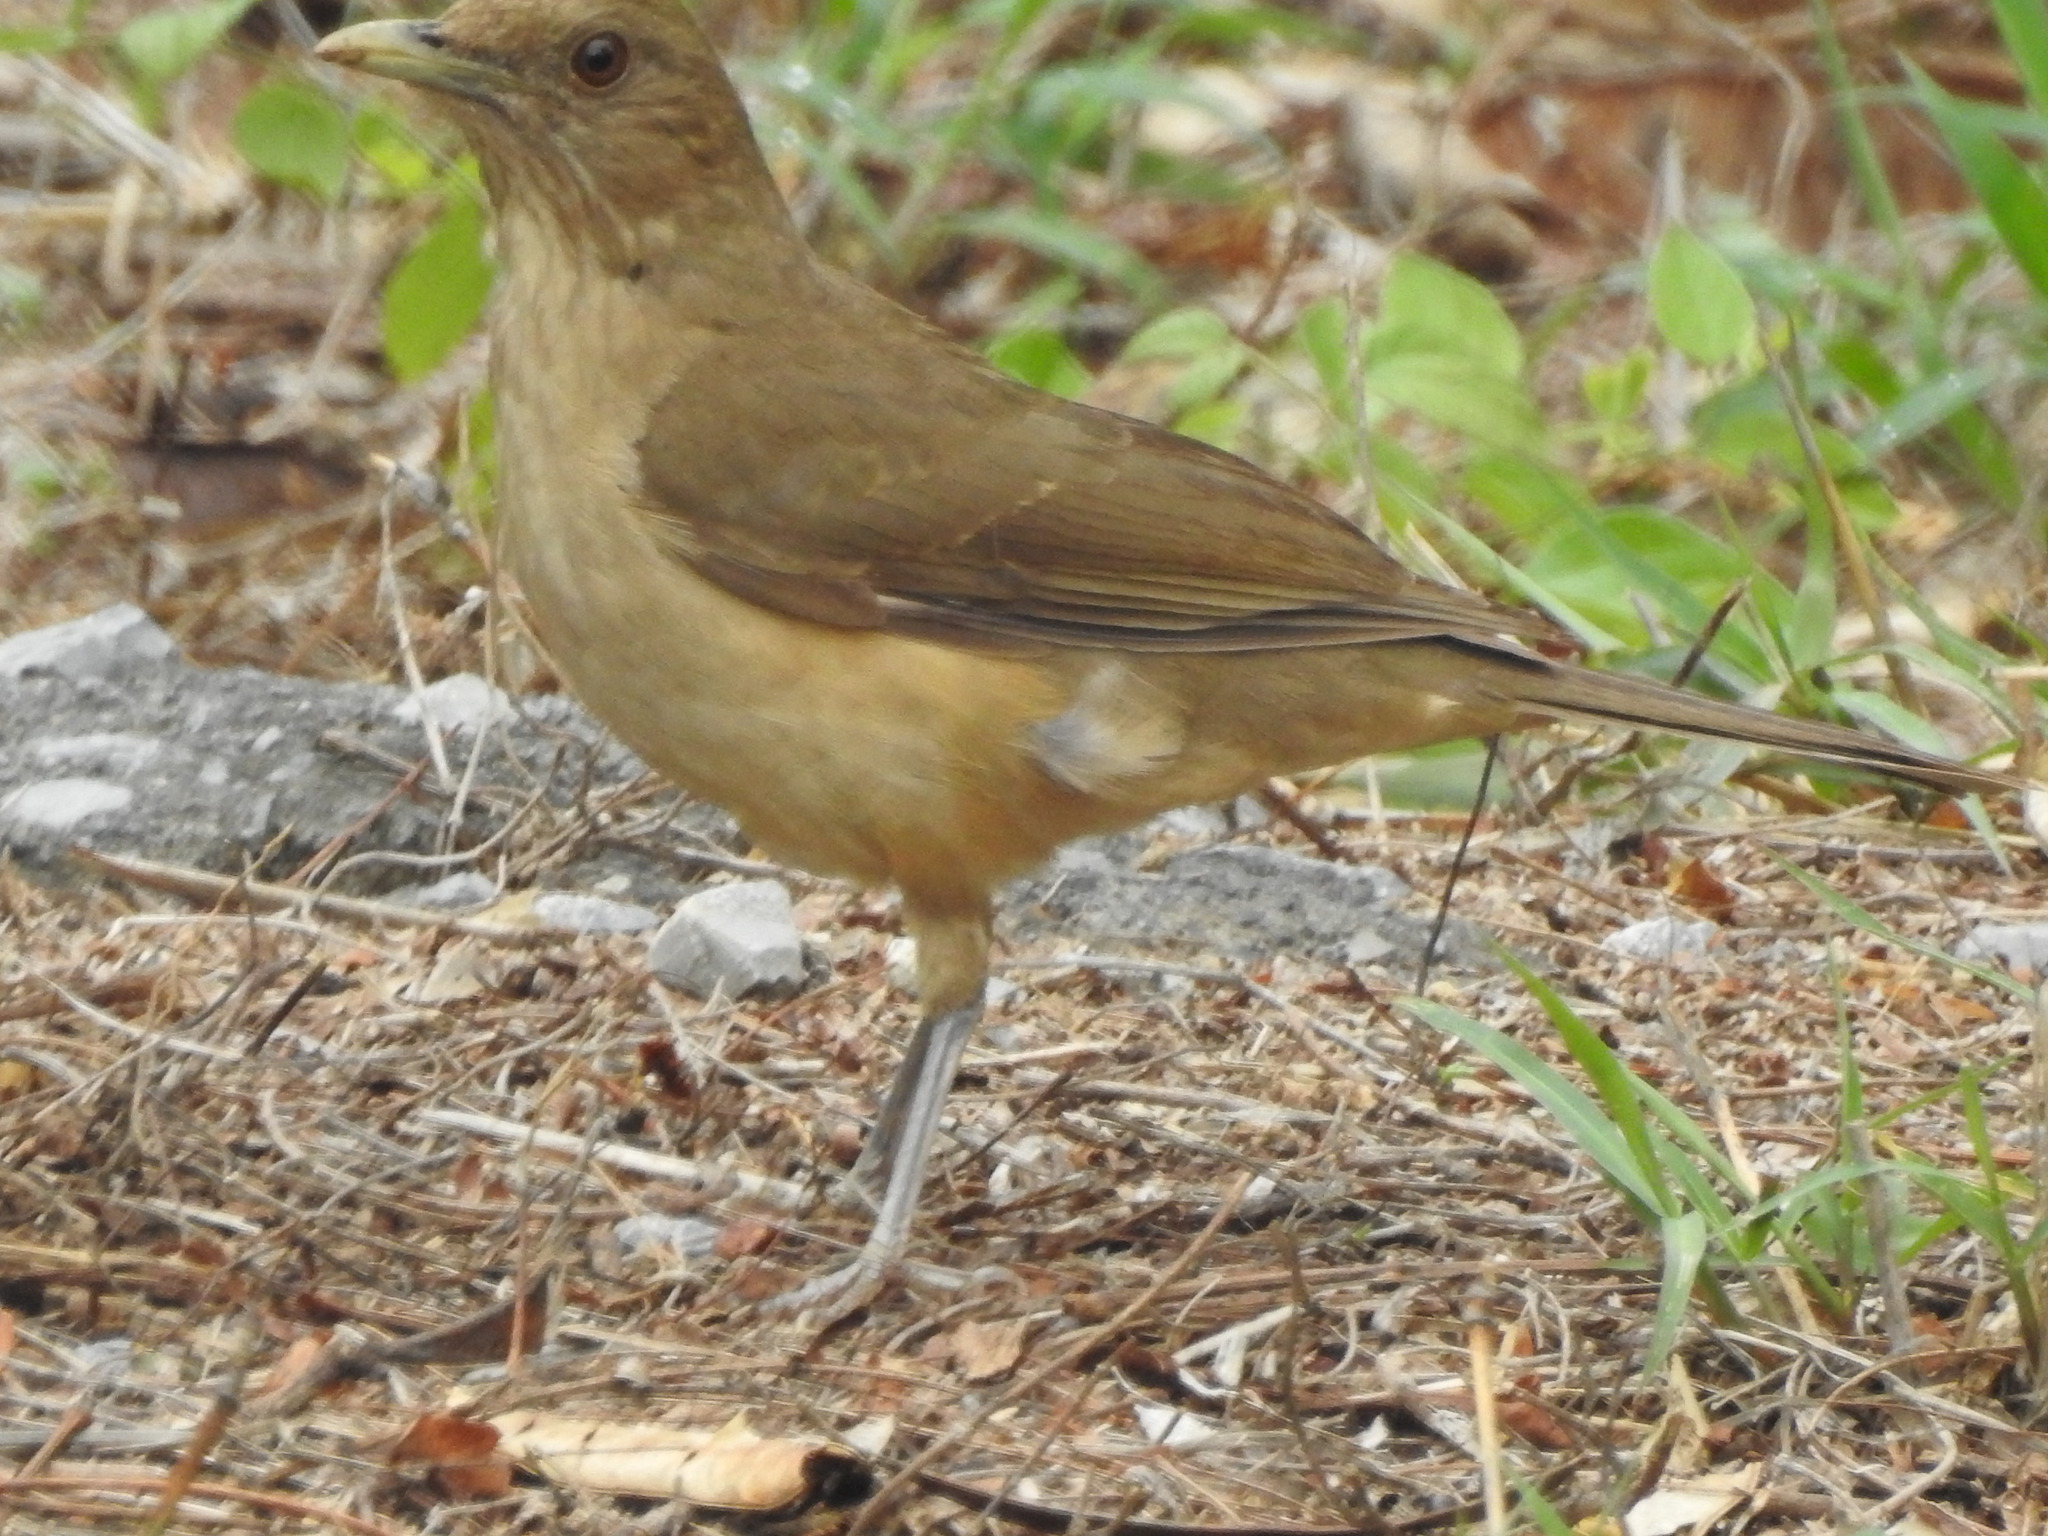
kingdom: Animalia
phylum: Chordata
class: Aves
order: Passeriformes
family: Turdidae
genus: Turdus
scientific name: Turdus grayi
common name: Clay-colored thrush
